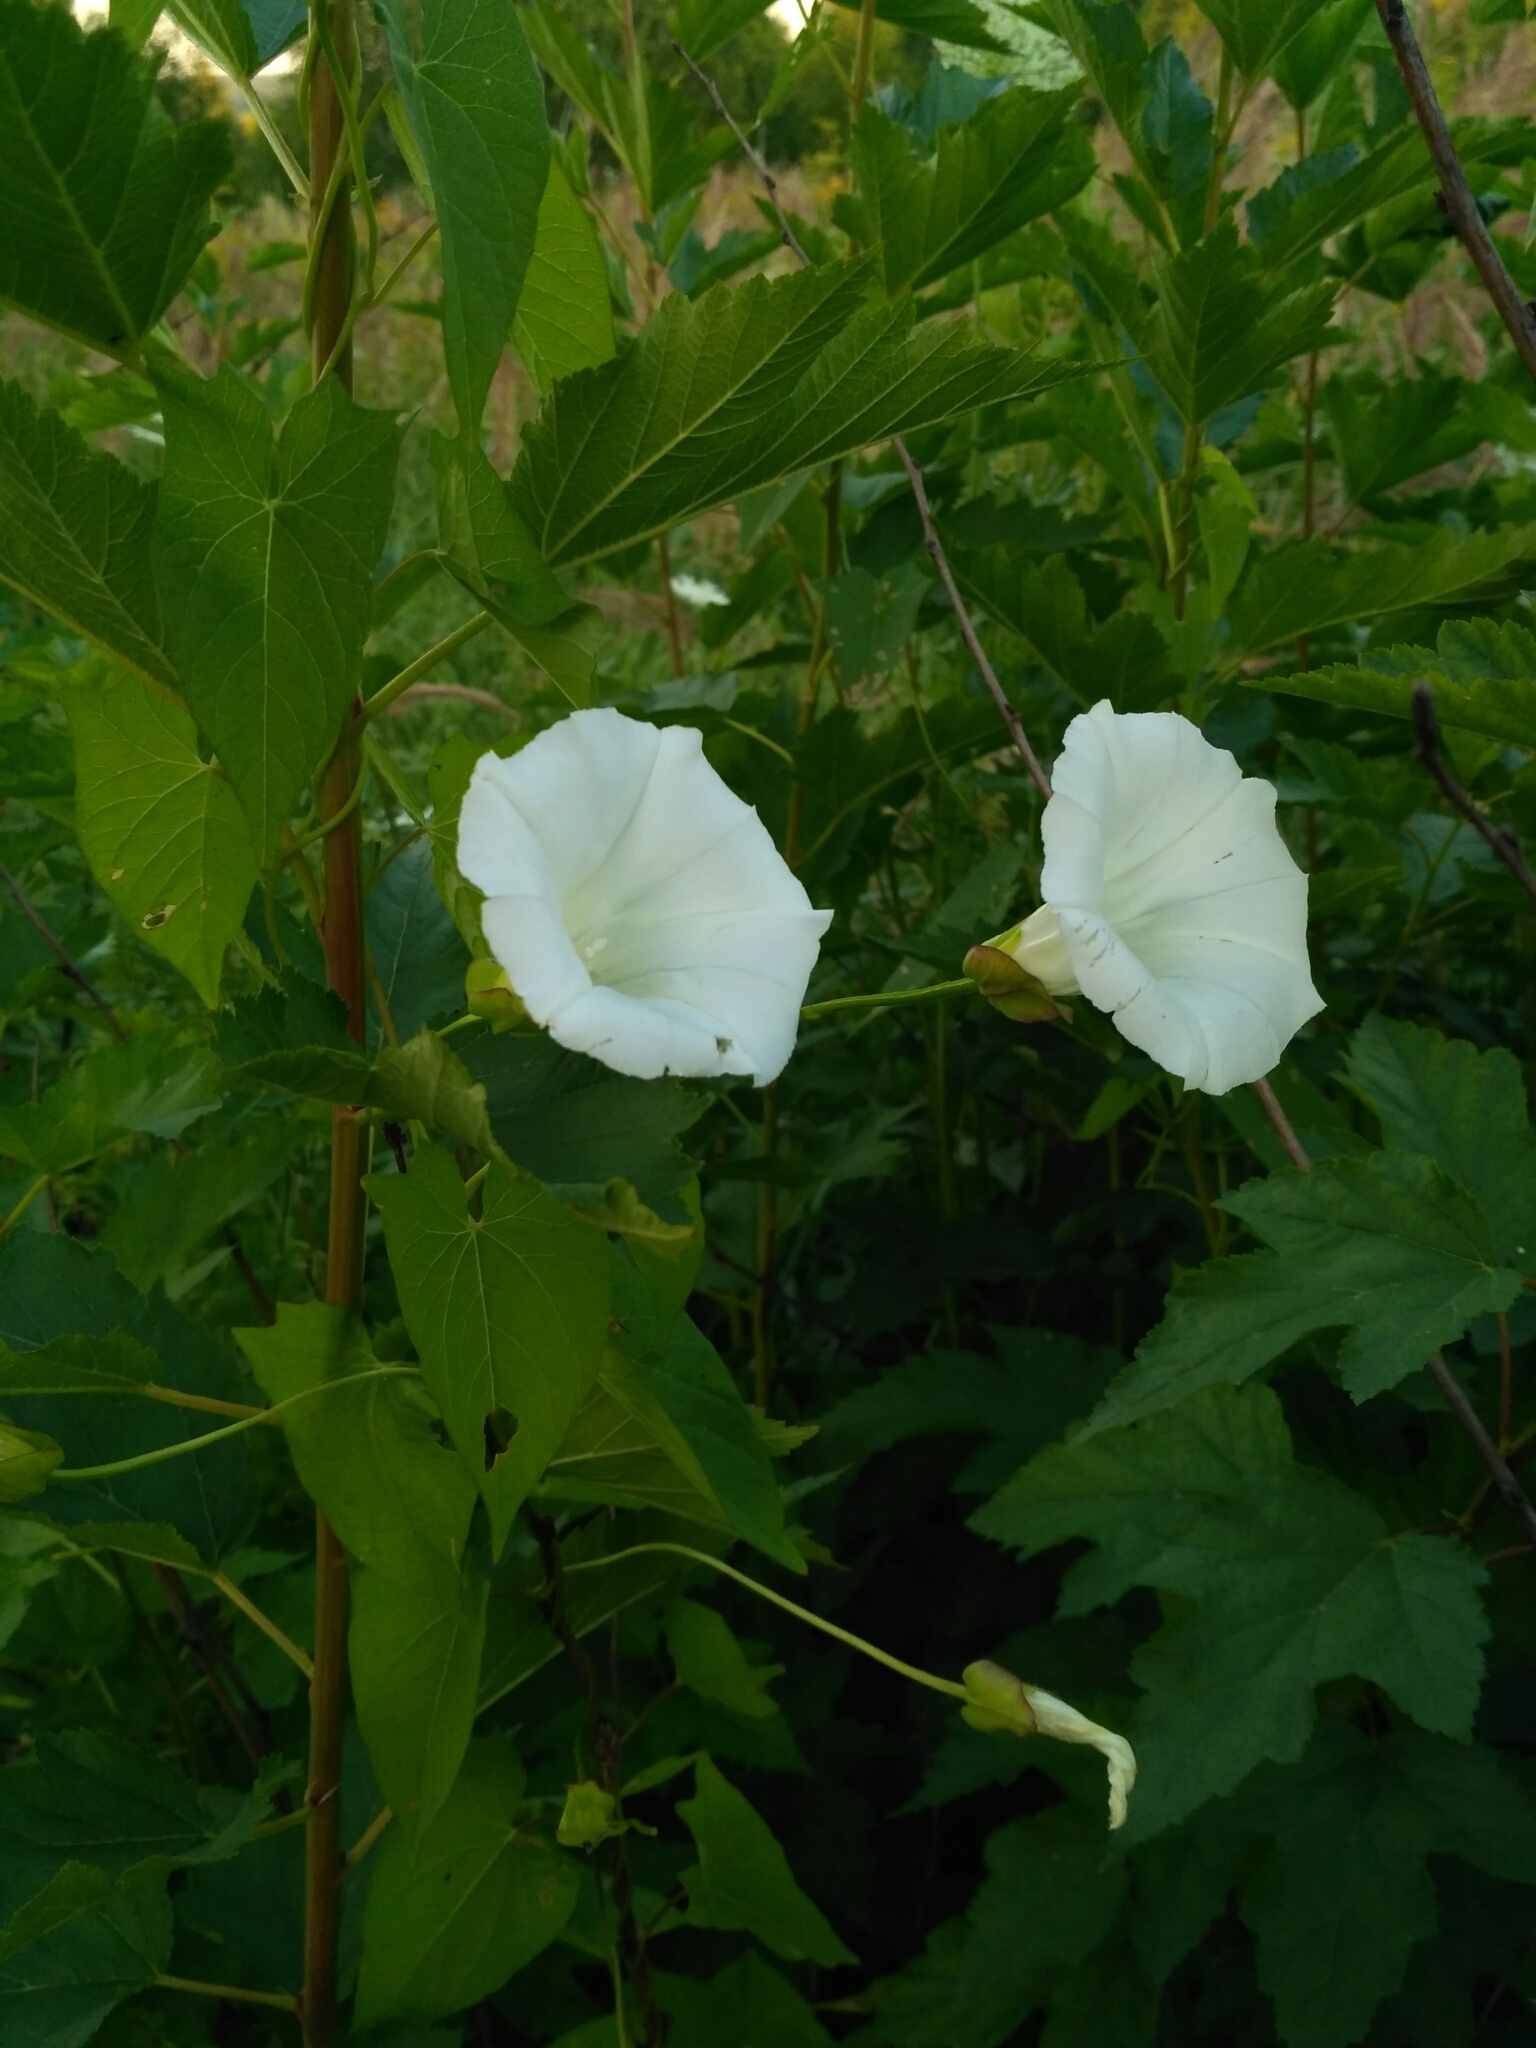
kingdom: Plantae
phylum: Tracheophyta
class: Magnoliopsida
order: Solanales
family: Convolvulaceae
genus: Calystegia
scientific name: Calystegia sepium
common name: Hedge bindweed
